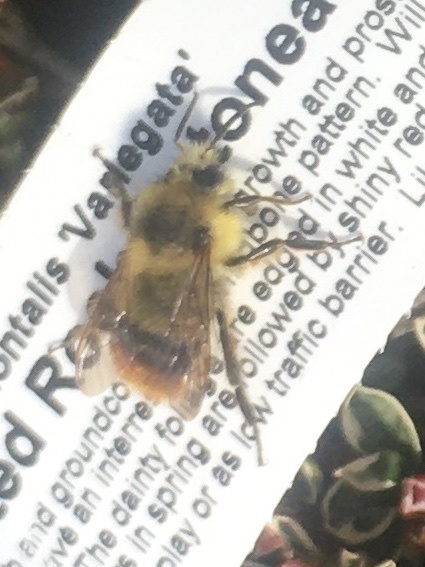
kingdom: Animalia
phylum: Arthropoda
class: Insecta
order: Hymenoptera
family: Apidae
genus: Bombus
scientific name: Bombus mixtus
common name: Fuzzy-horned bumble bee
